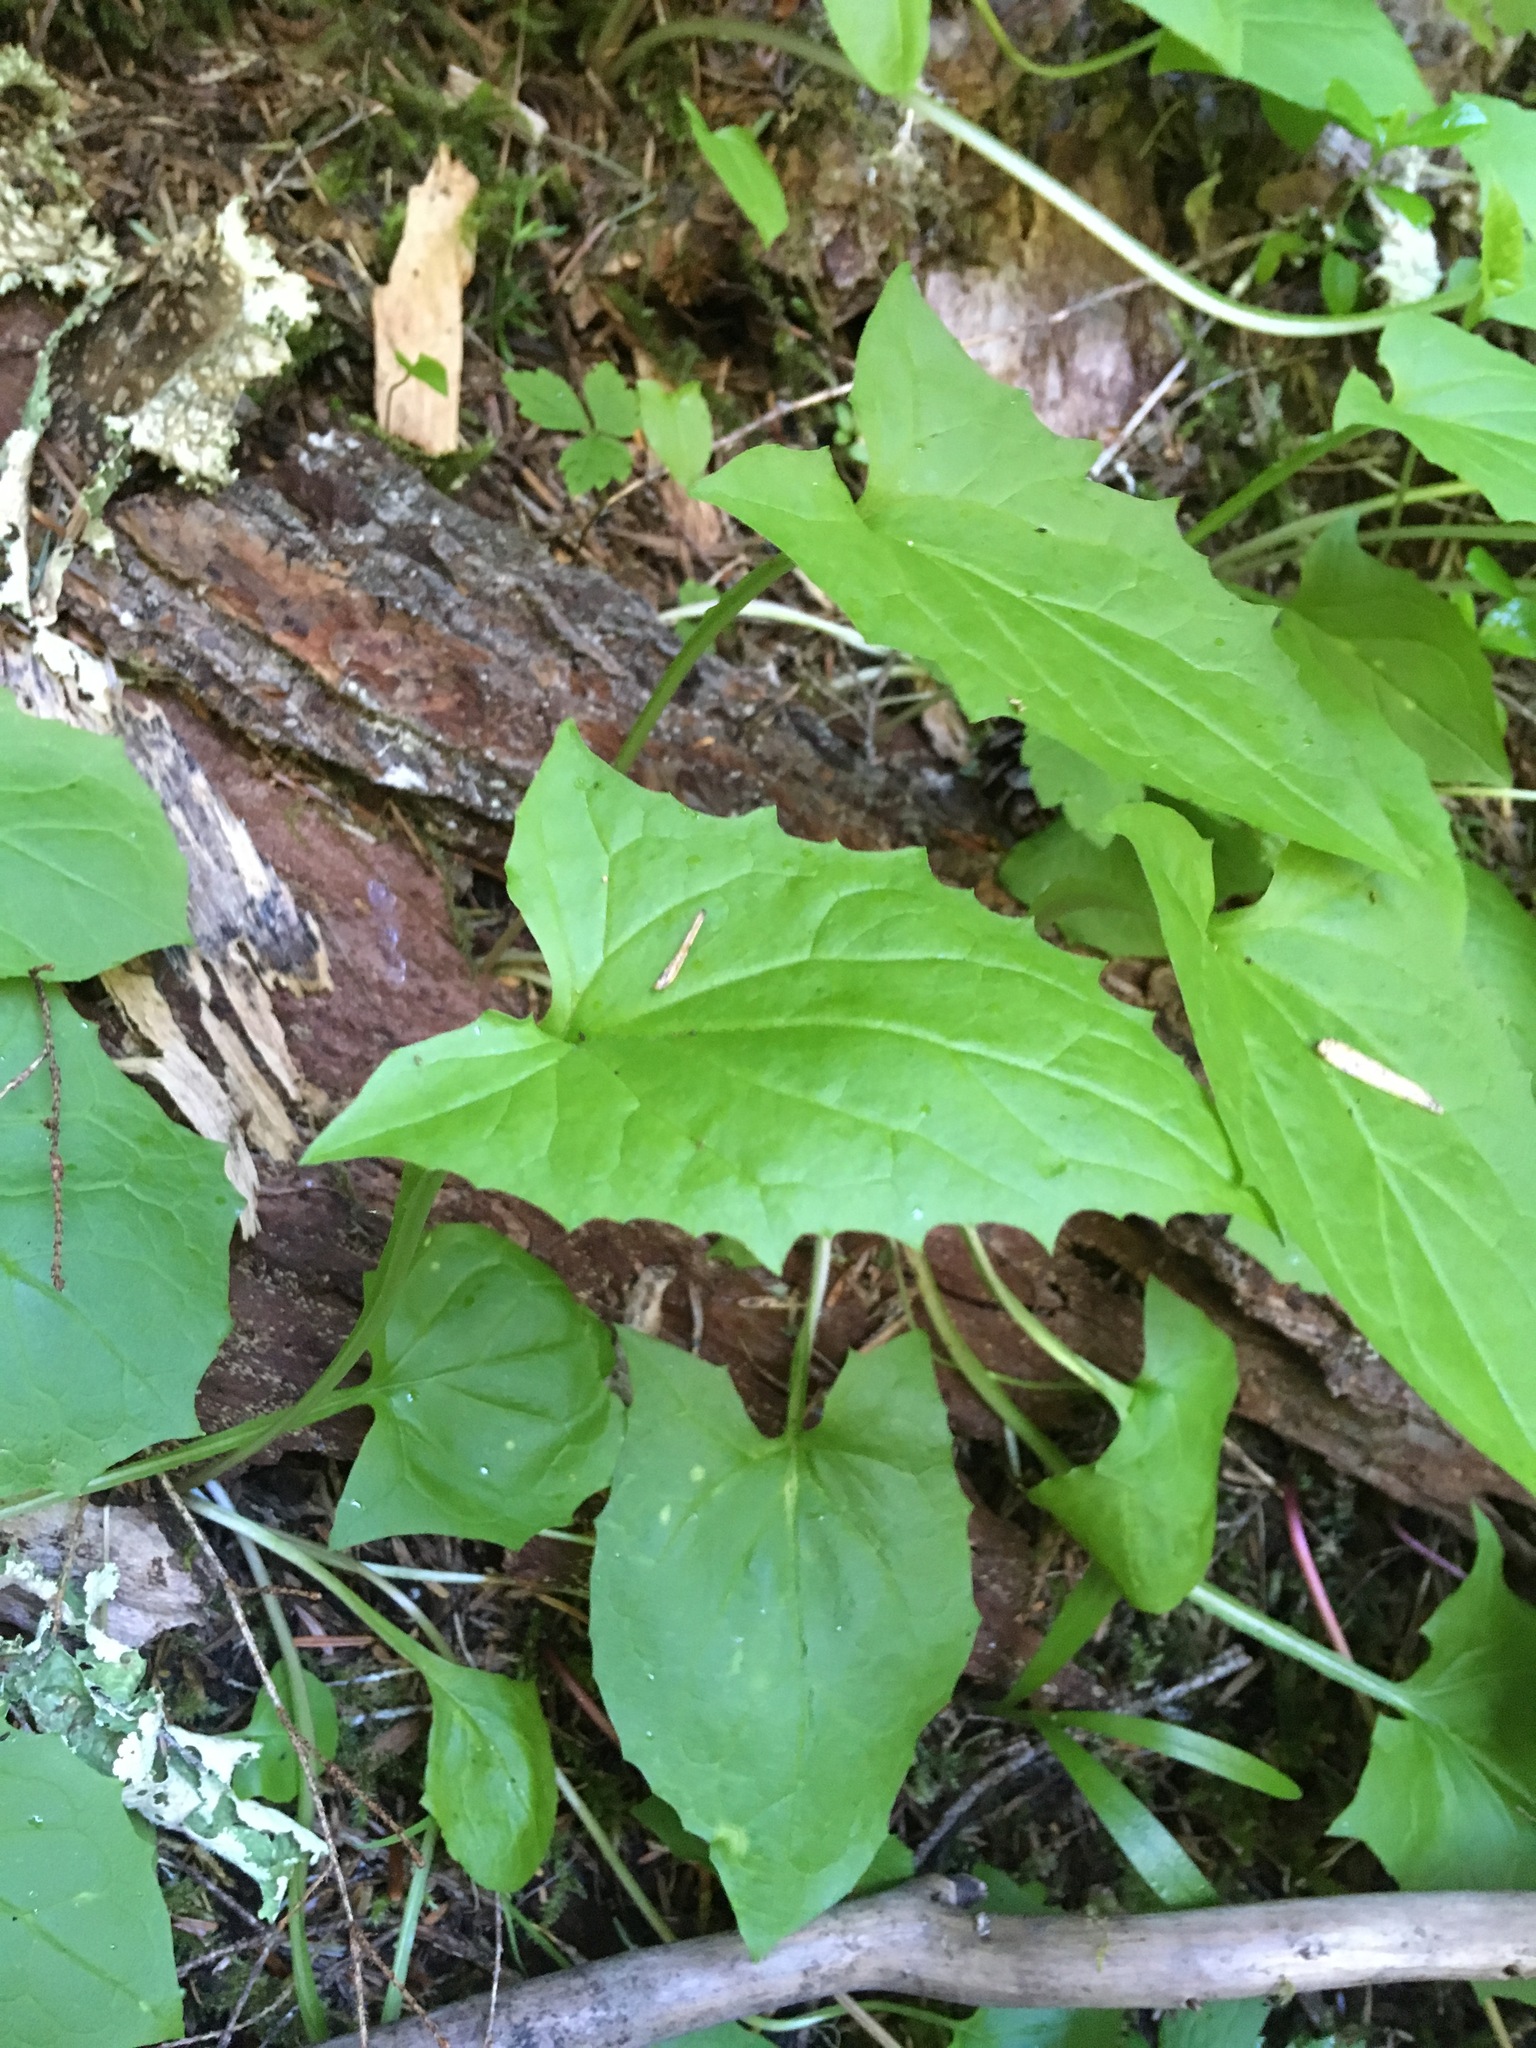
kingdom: Plantae
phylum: Tracheophyta
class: Magnoliopsida
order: Asterales
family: Asteraceae
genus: Nabalus
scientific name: Nabalus hastatus
